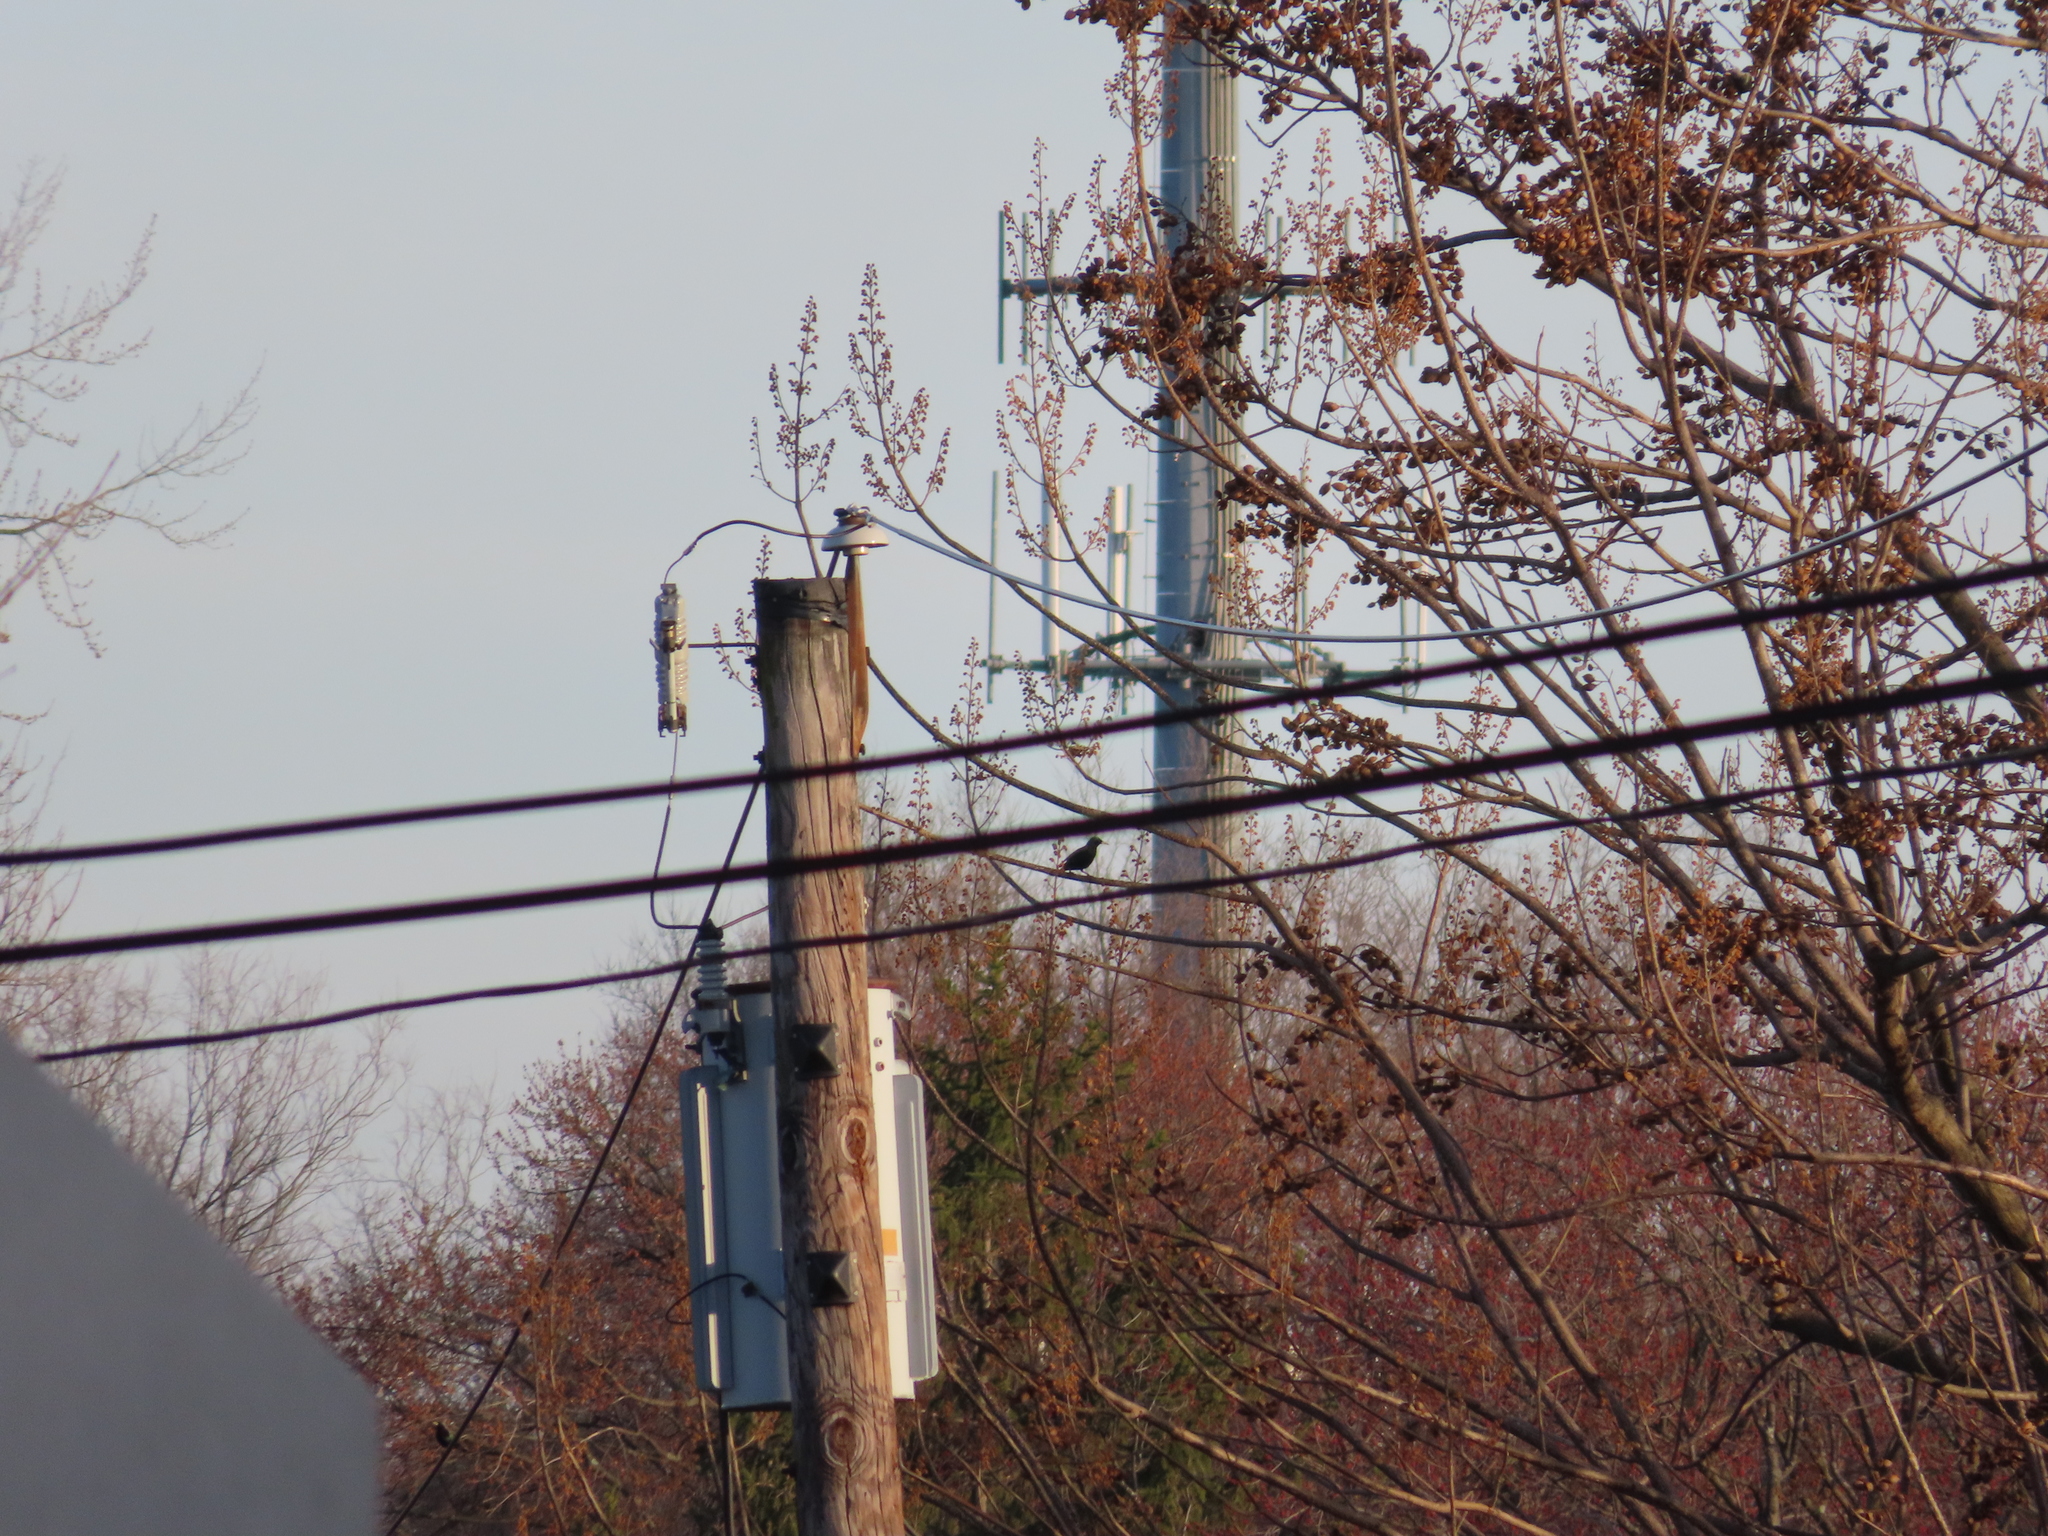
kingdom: Animalia
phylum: Chordata
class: Aves
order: Passeriformes
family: Sturnidae
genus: Sturnus
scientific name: Sturnus vulgaris
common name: Common starling
